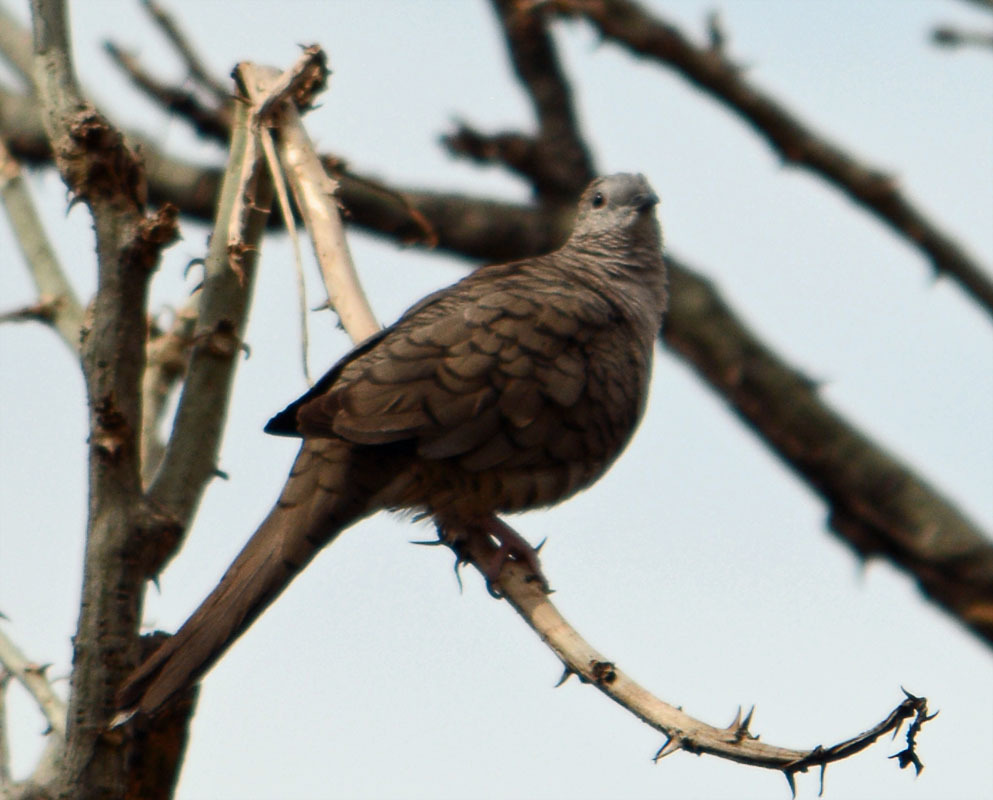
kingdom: Animalia
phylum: Chordata
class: Aves
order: Columbiformes
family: Columbidae
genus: Columbina
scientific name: Columbina inca
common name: Inca dove
